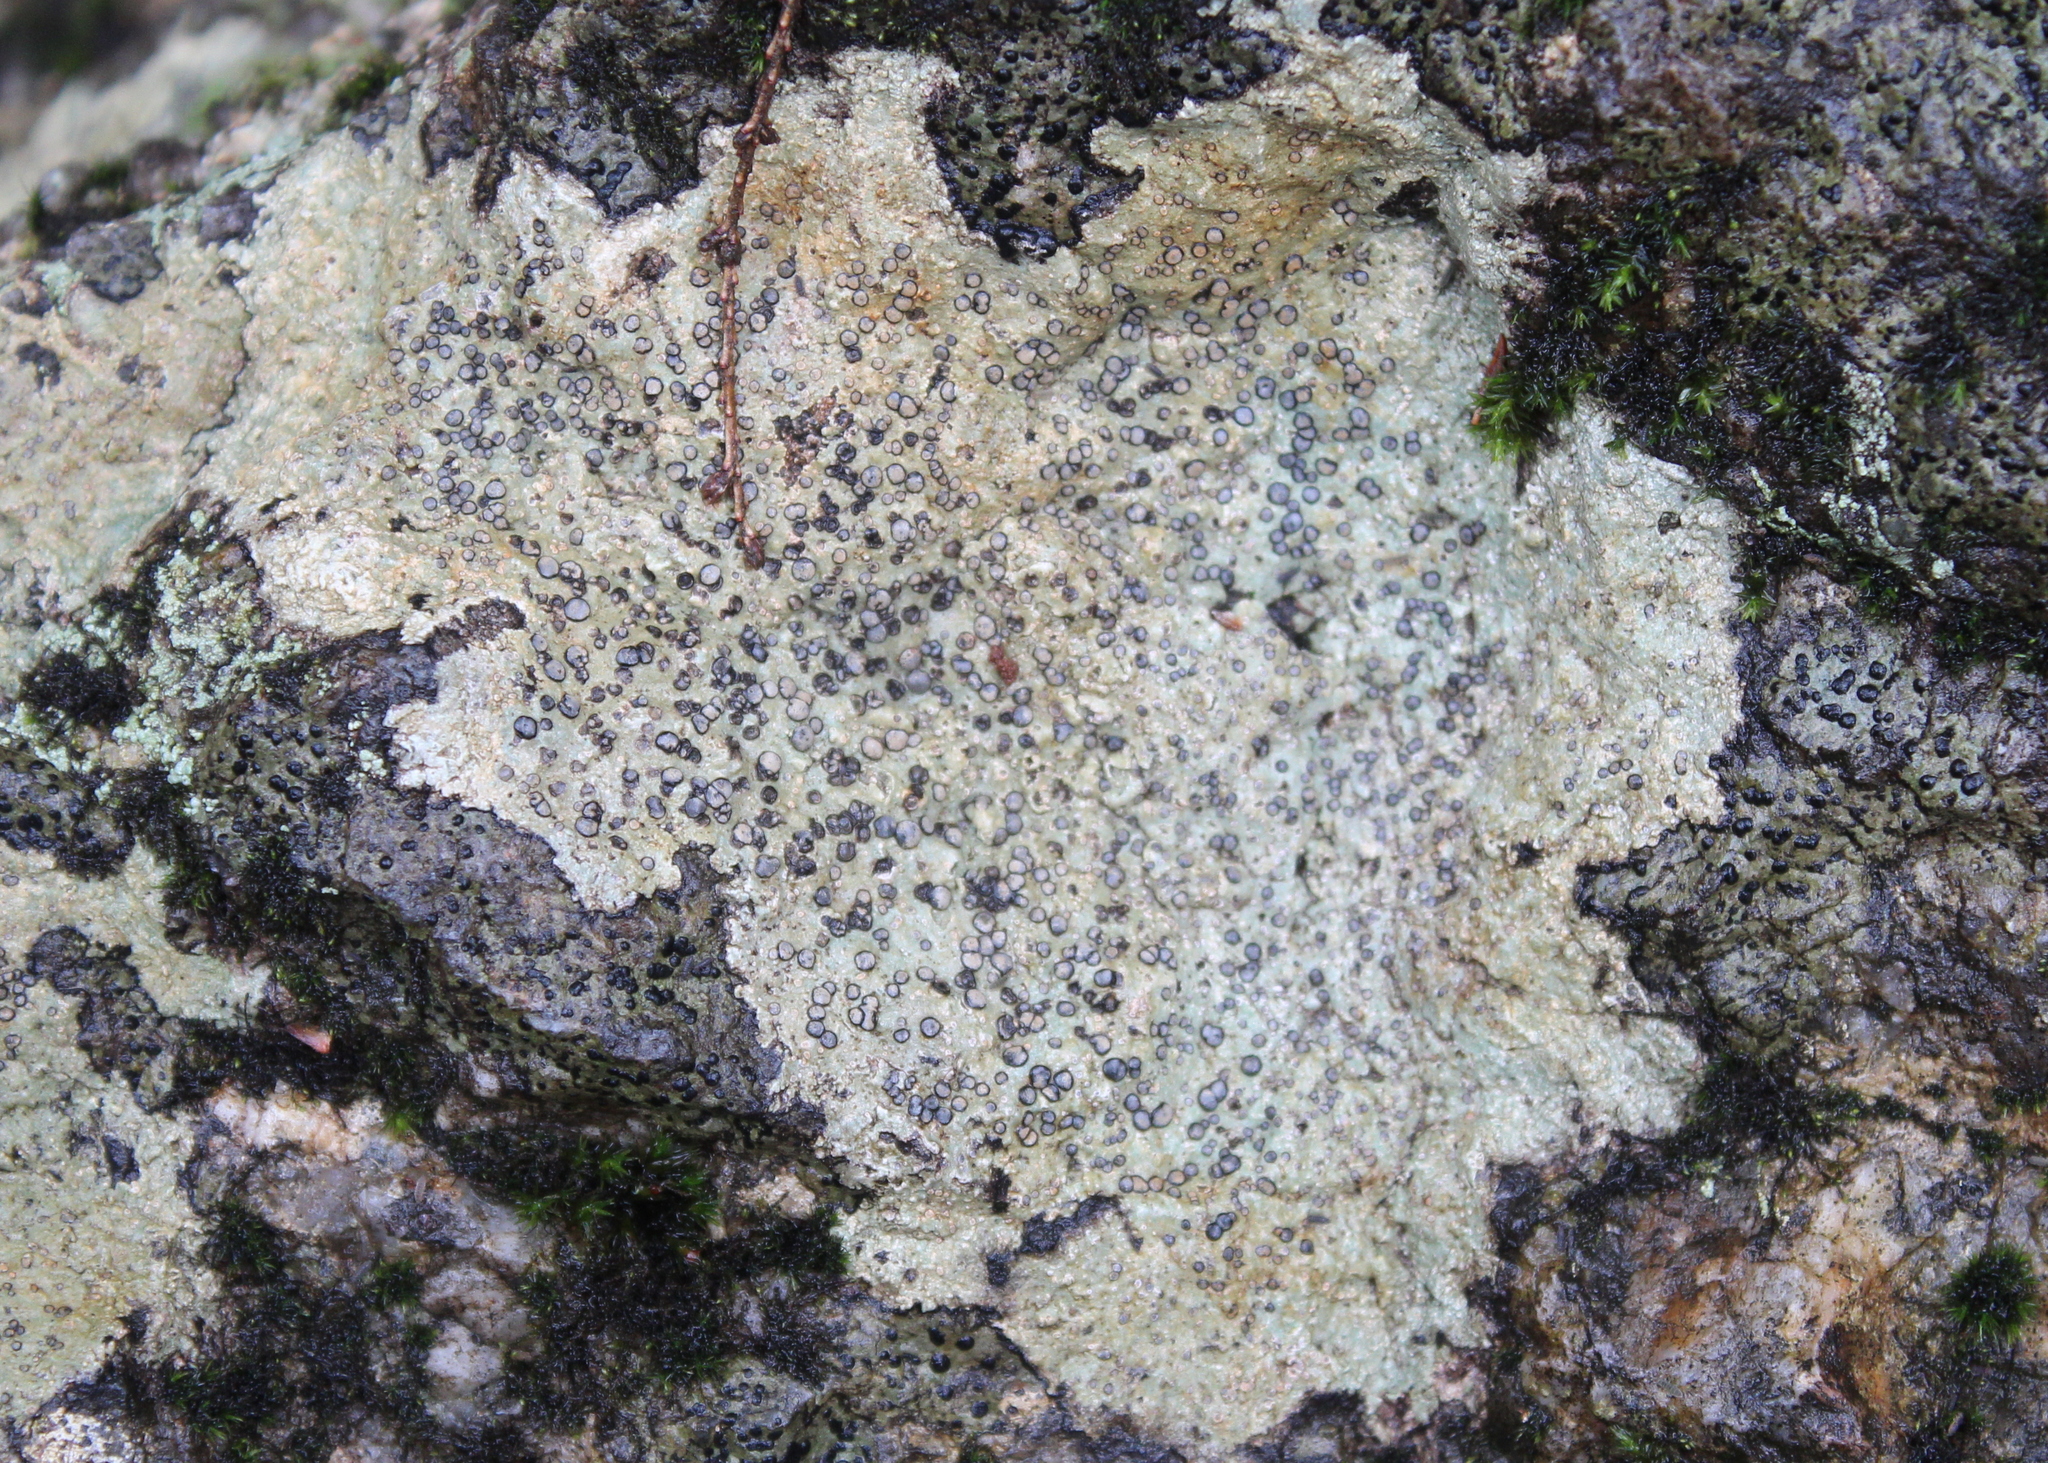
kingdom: Fungi
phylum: Ascomycota
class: Lecanoromycetes
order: Lecideales
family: Lecideaceae
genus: Porpidia
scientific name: Porpidia albocaerulescens
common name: Smokey-eyed boulder lichen
